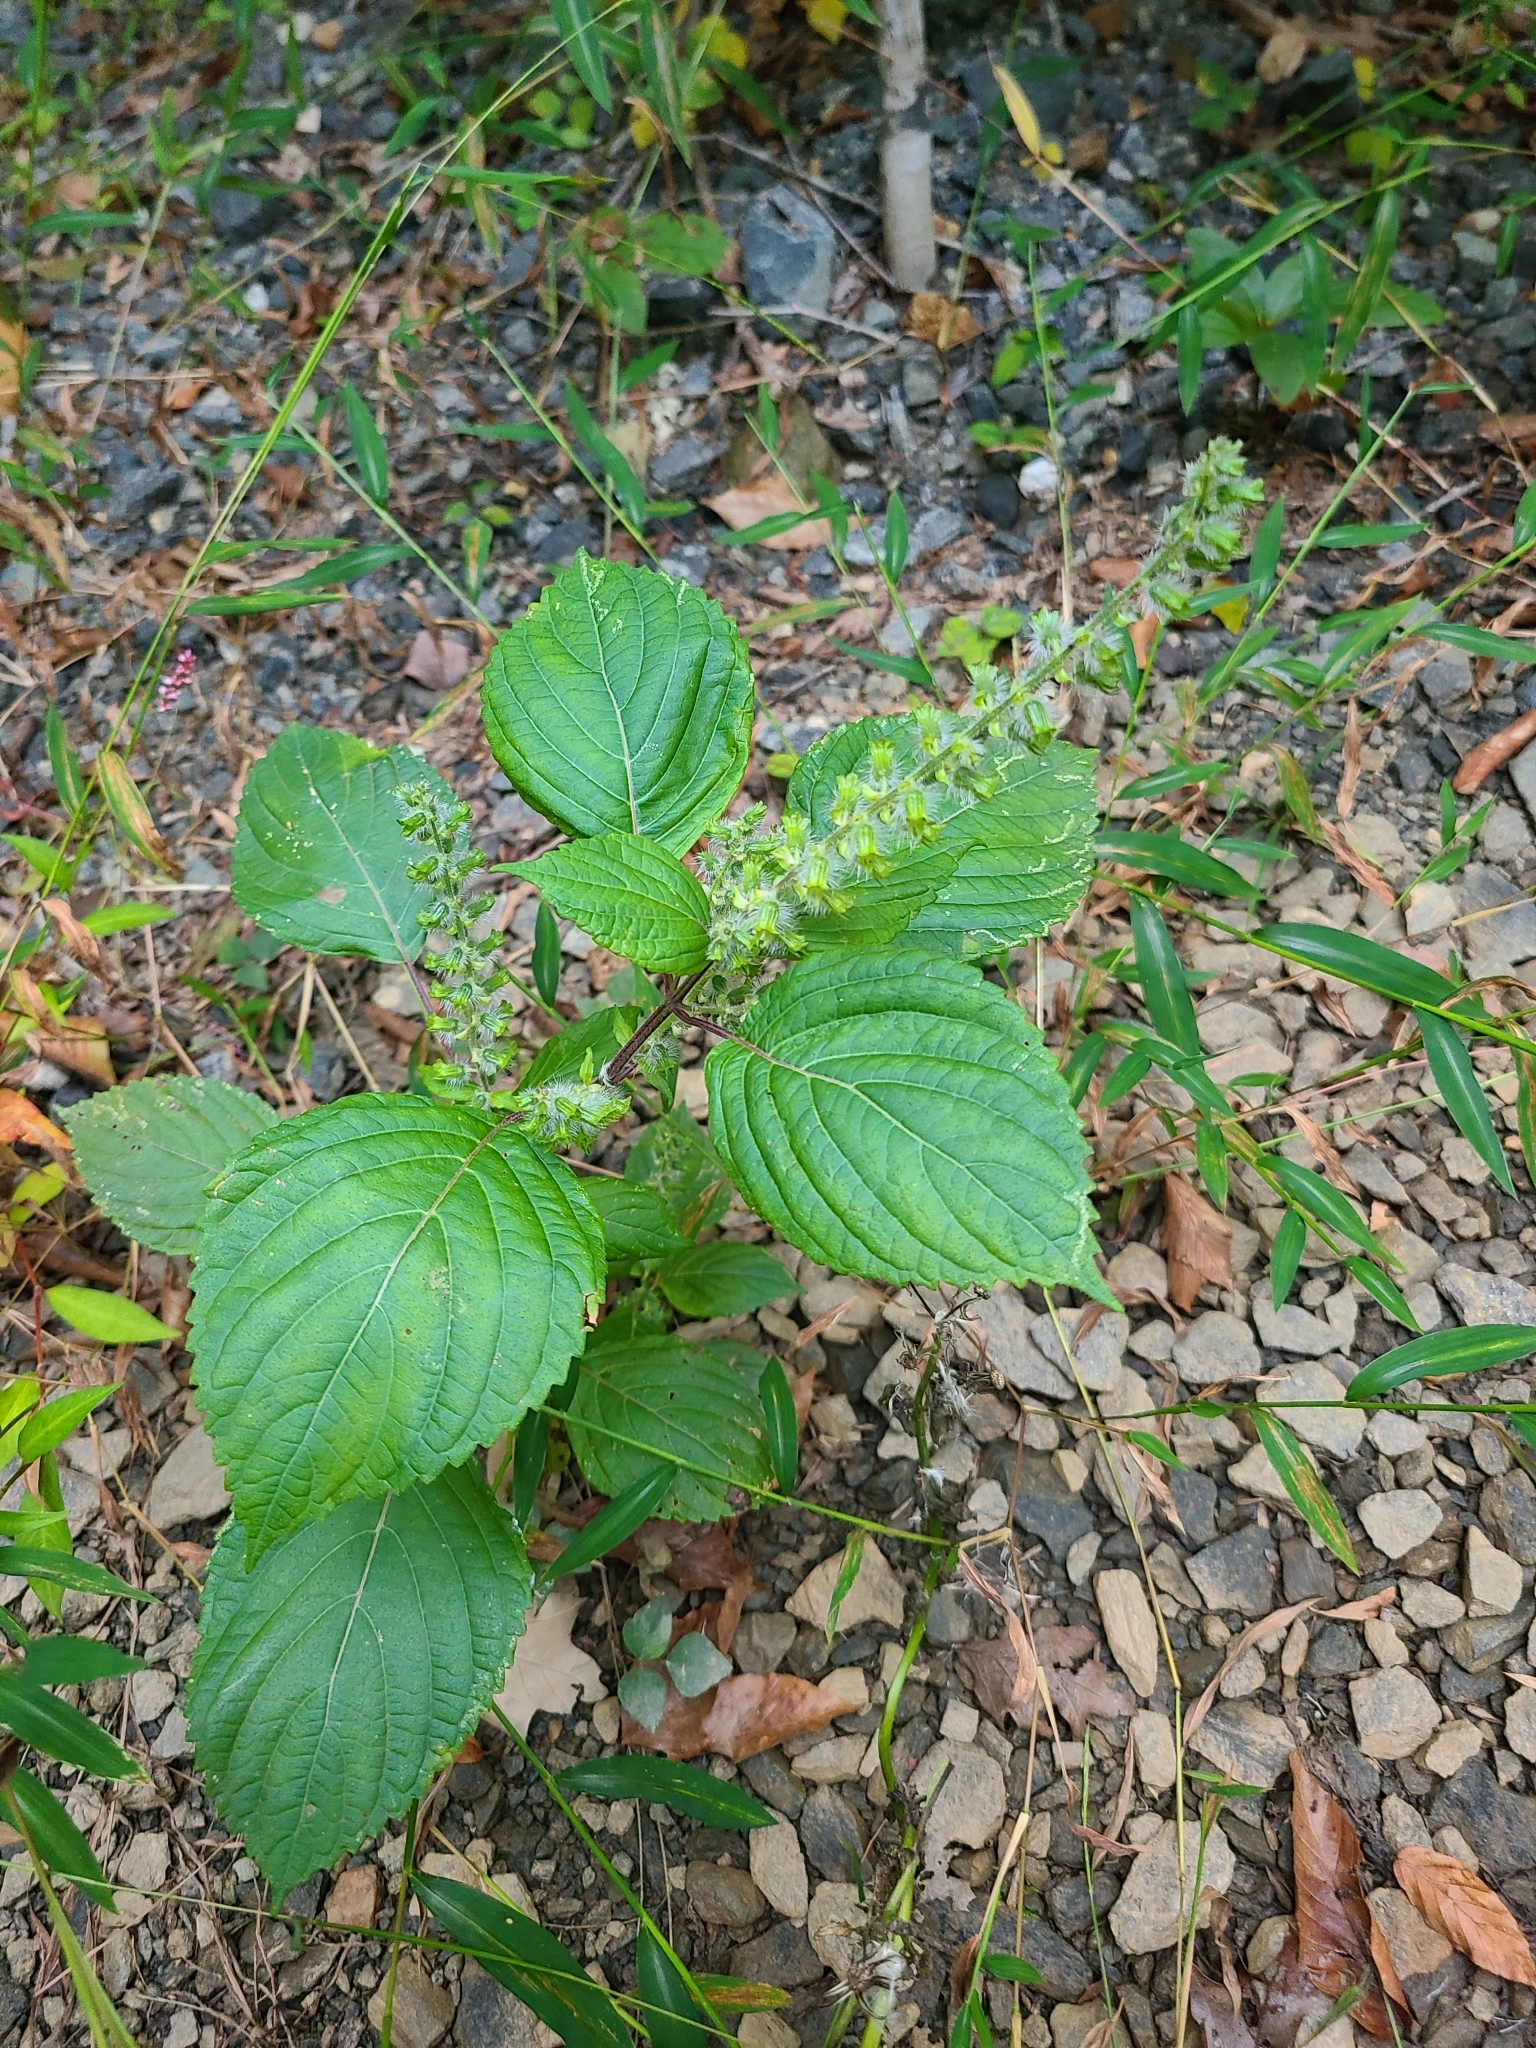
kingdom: Plantae
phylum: Tracheophyta
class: Magnoliopsida
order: Lamiales
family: Lamiaceae
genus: Perilla
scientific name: Perilla frutescens
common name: Perilla
